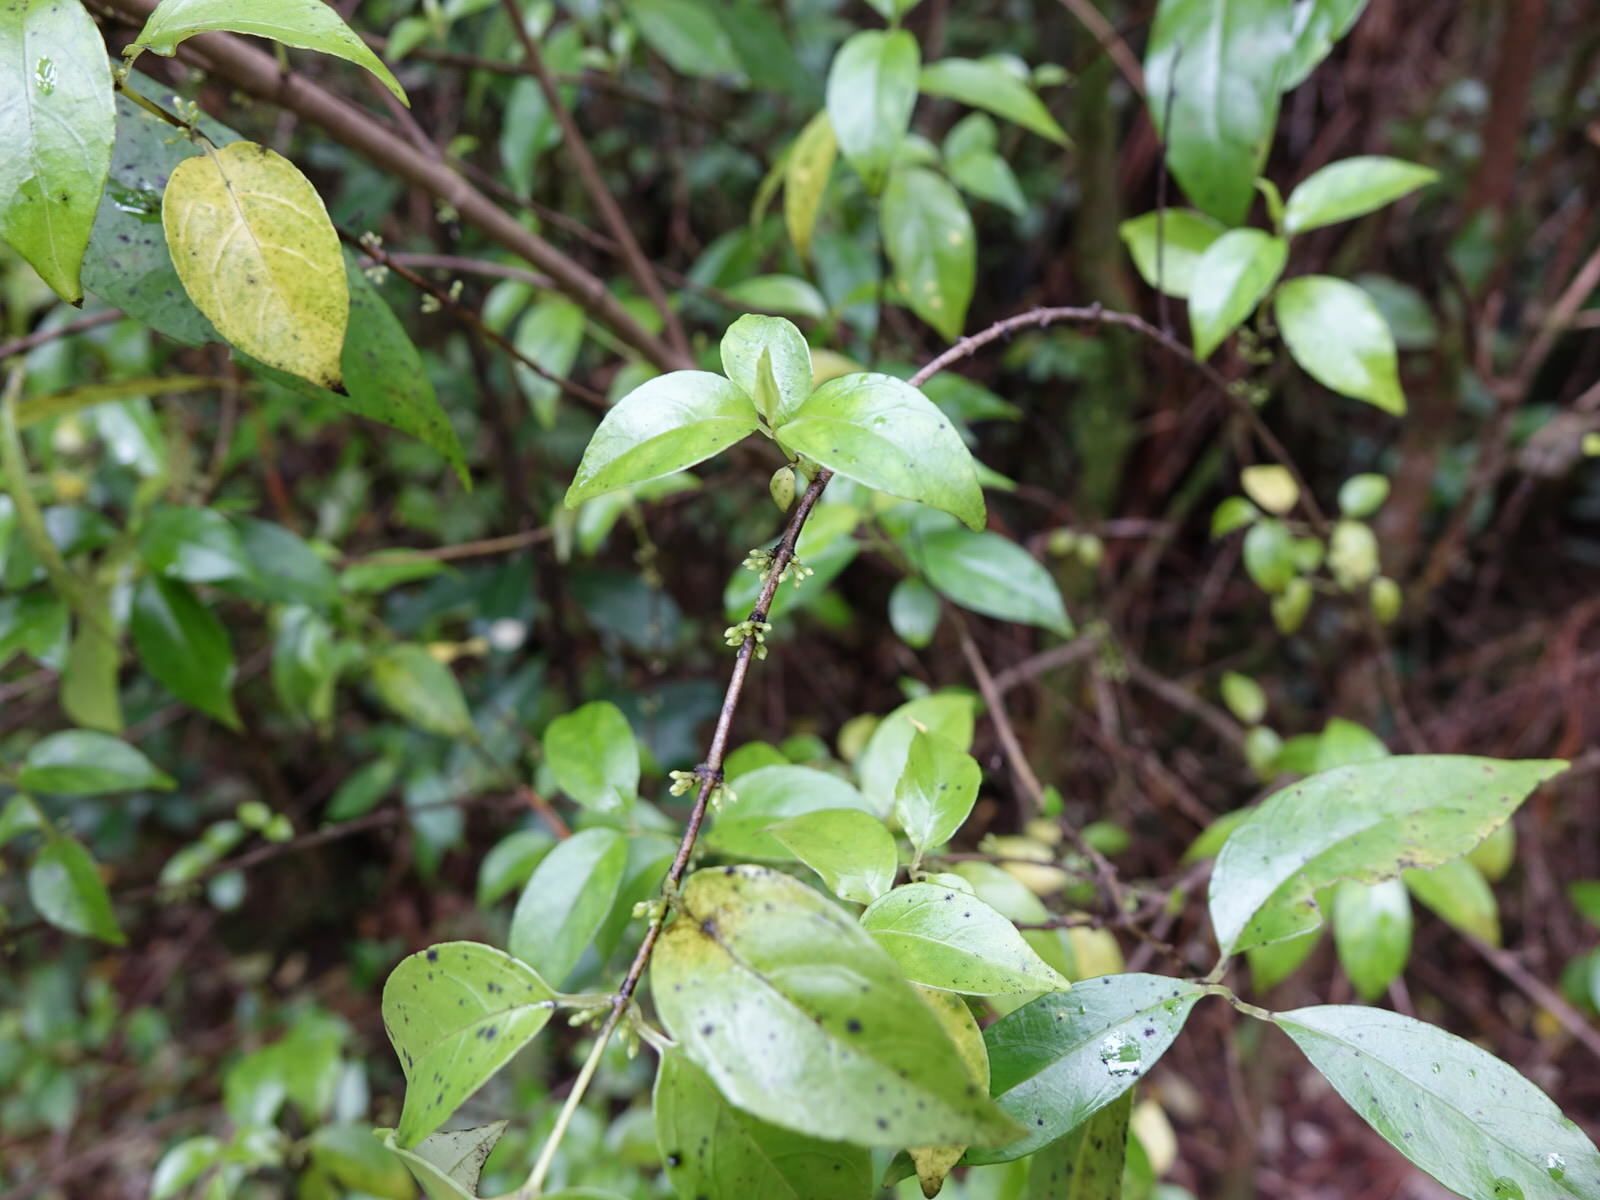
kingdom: Plantae
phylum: Tracheophyta
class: Magnoliopsida
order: Gentianales
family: Loganiaceae
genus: Geniostoma
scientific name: Geniostoma ligustrifolium
